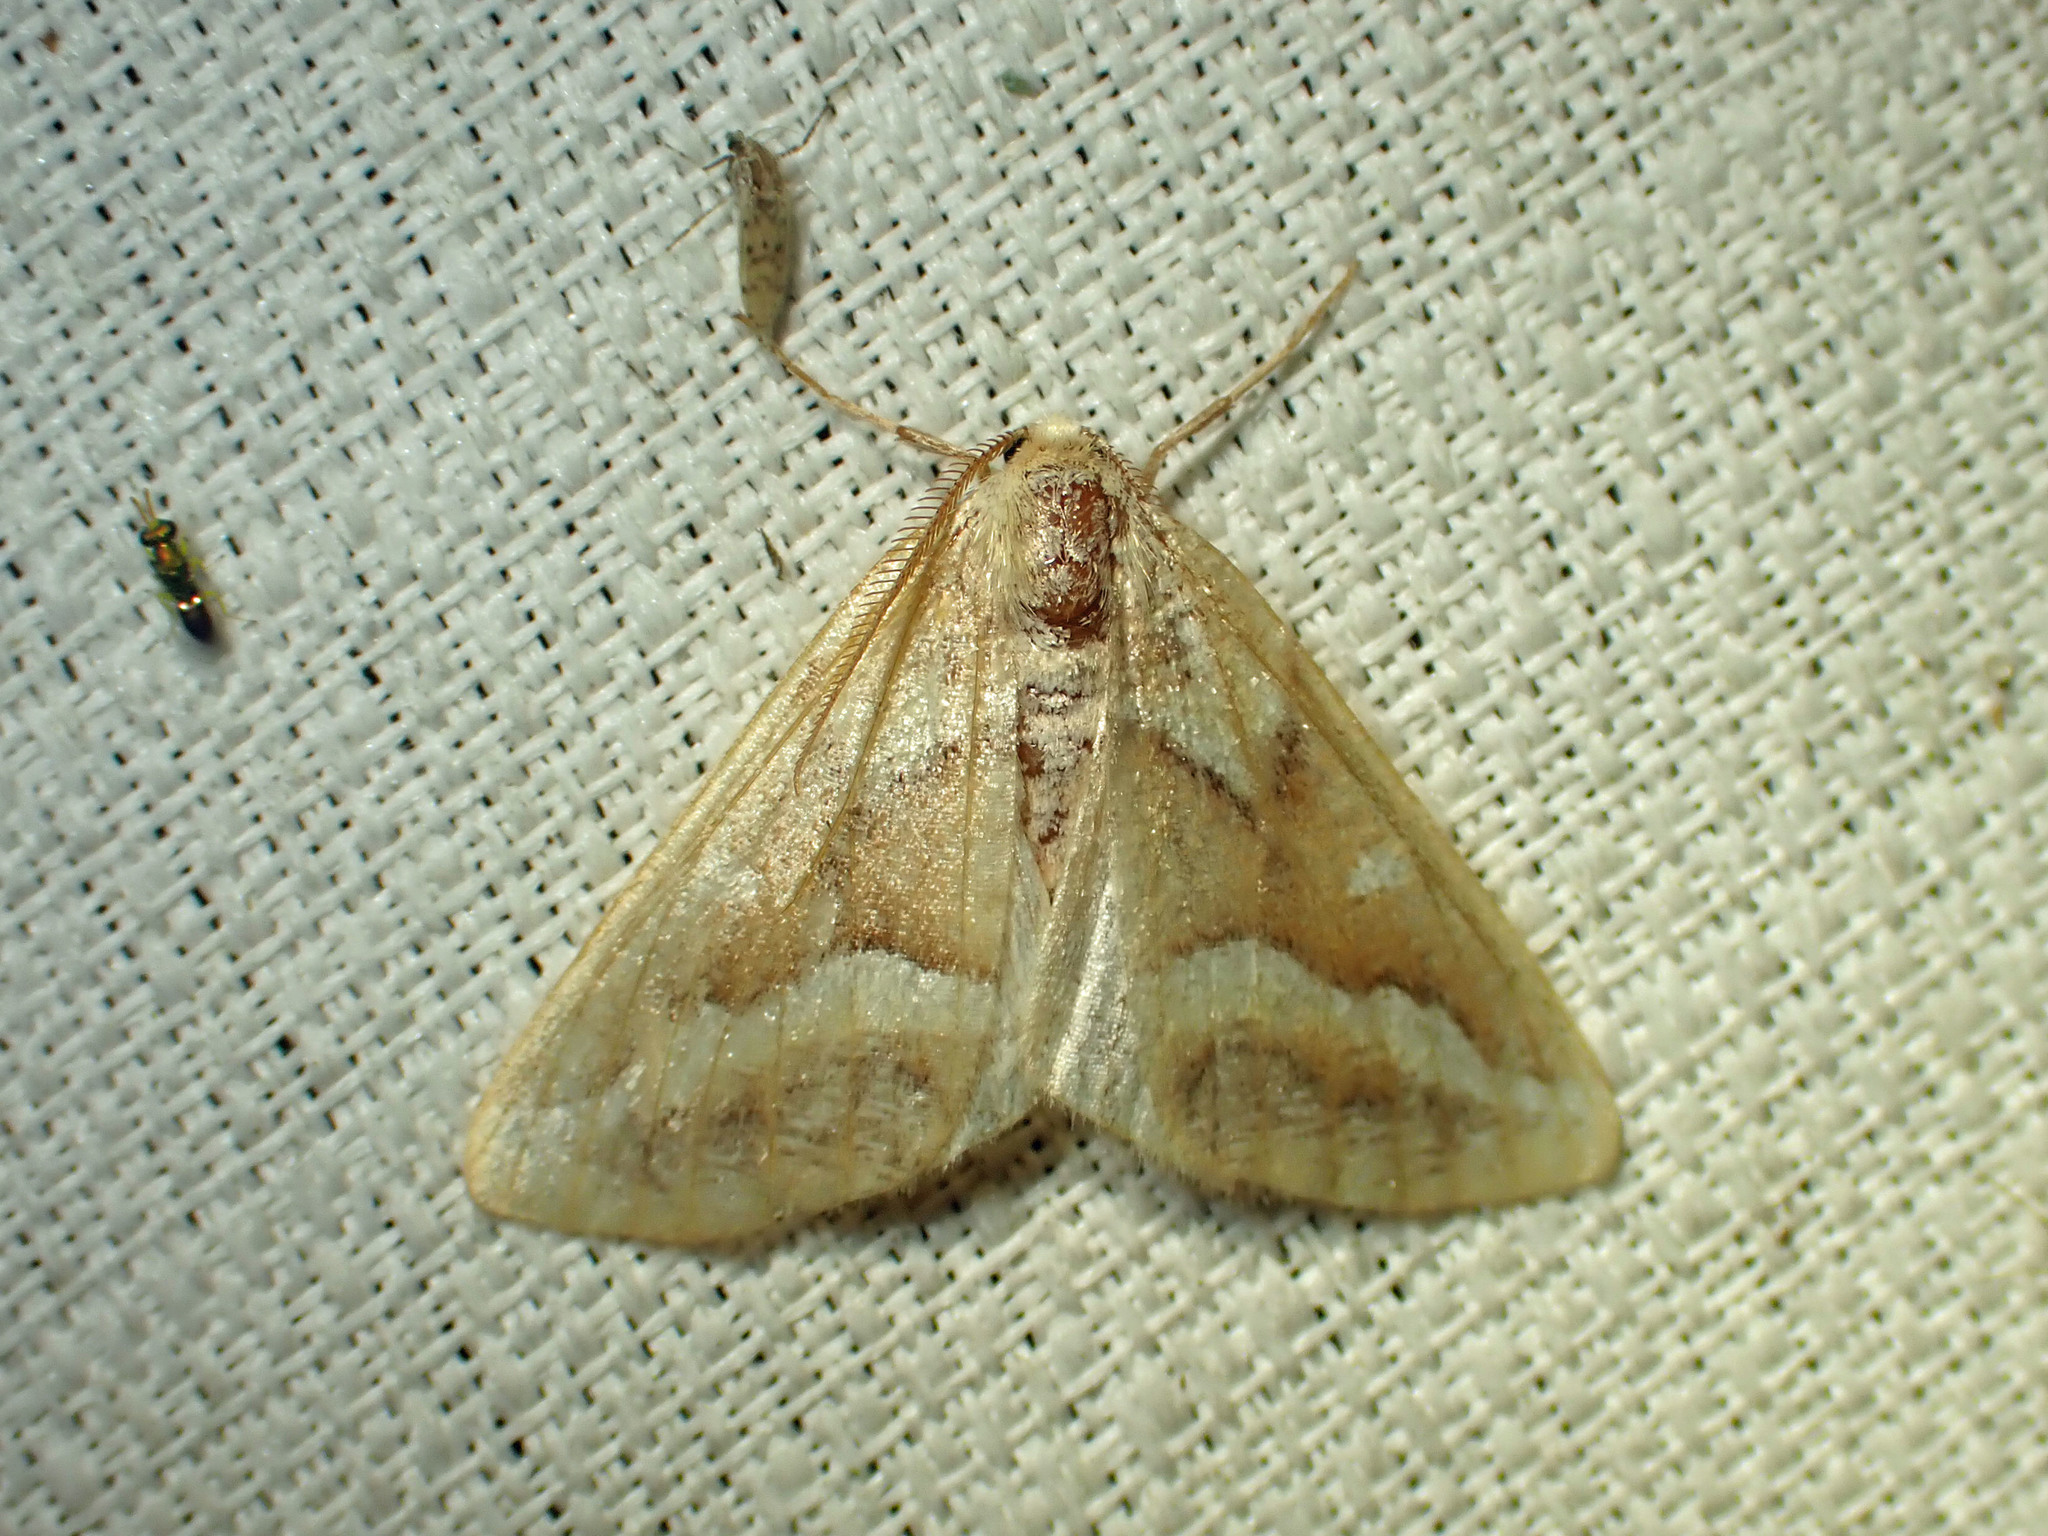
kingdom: Animalia
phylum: Arthropoda
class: Insecta
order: Lepidoptera
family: Geometridae
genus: Caripeta
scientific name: Caripeta angustiorata
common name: Brown pine looper
